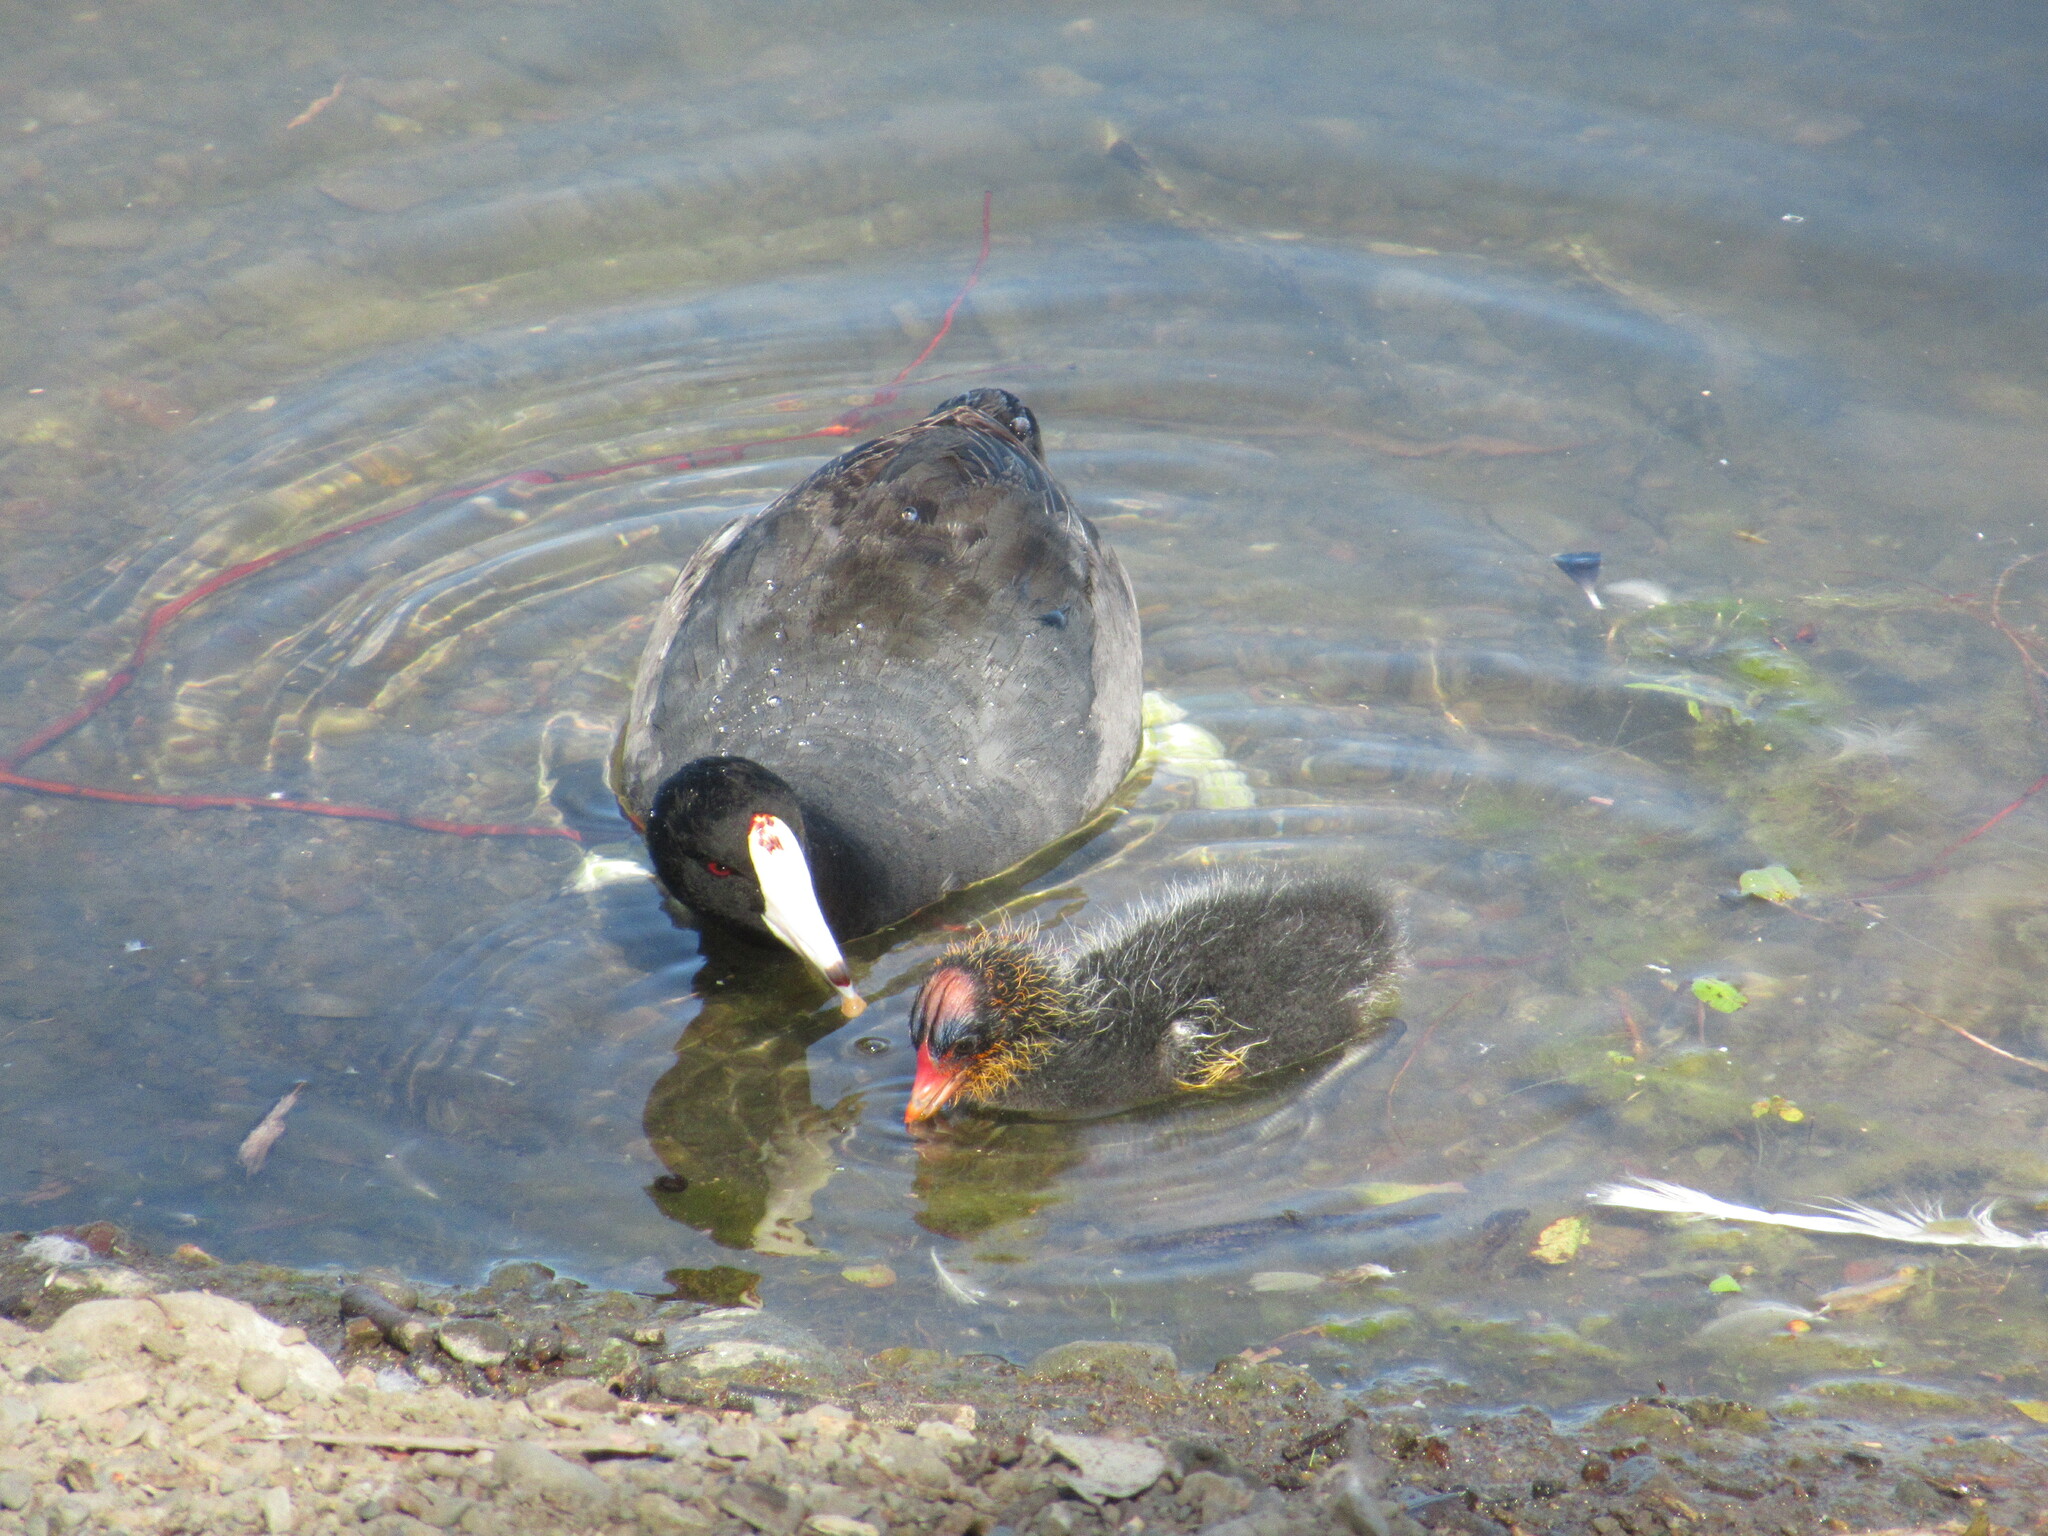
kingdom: Animalia
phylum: Chordata
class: Aves
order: Gruiformes
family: Rallidae
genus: Fulica
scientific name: Fulica americana
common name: American coot
